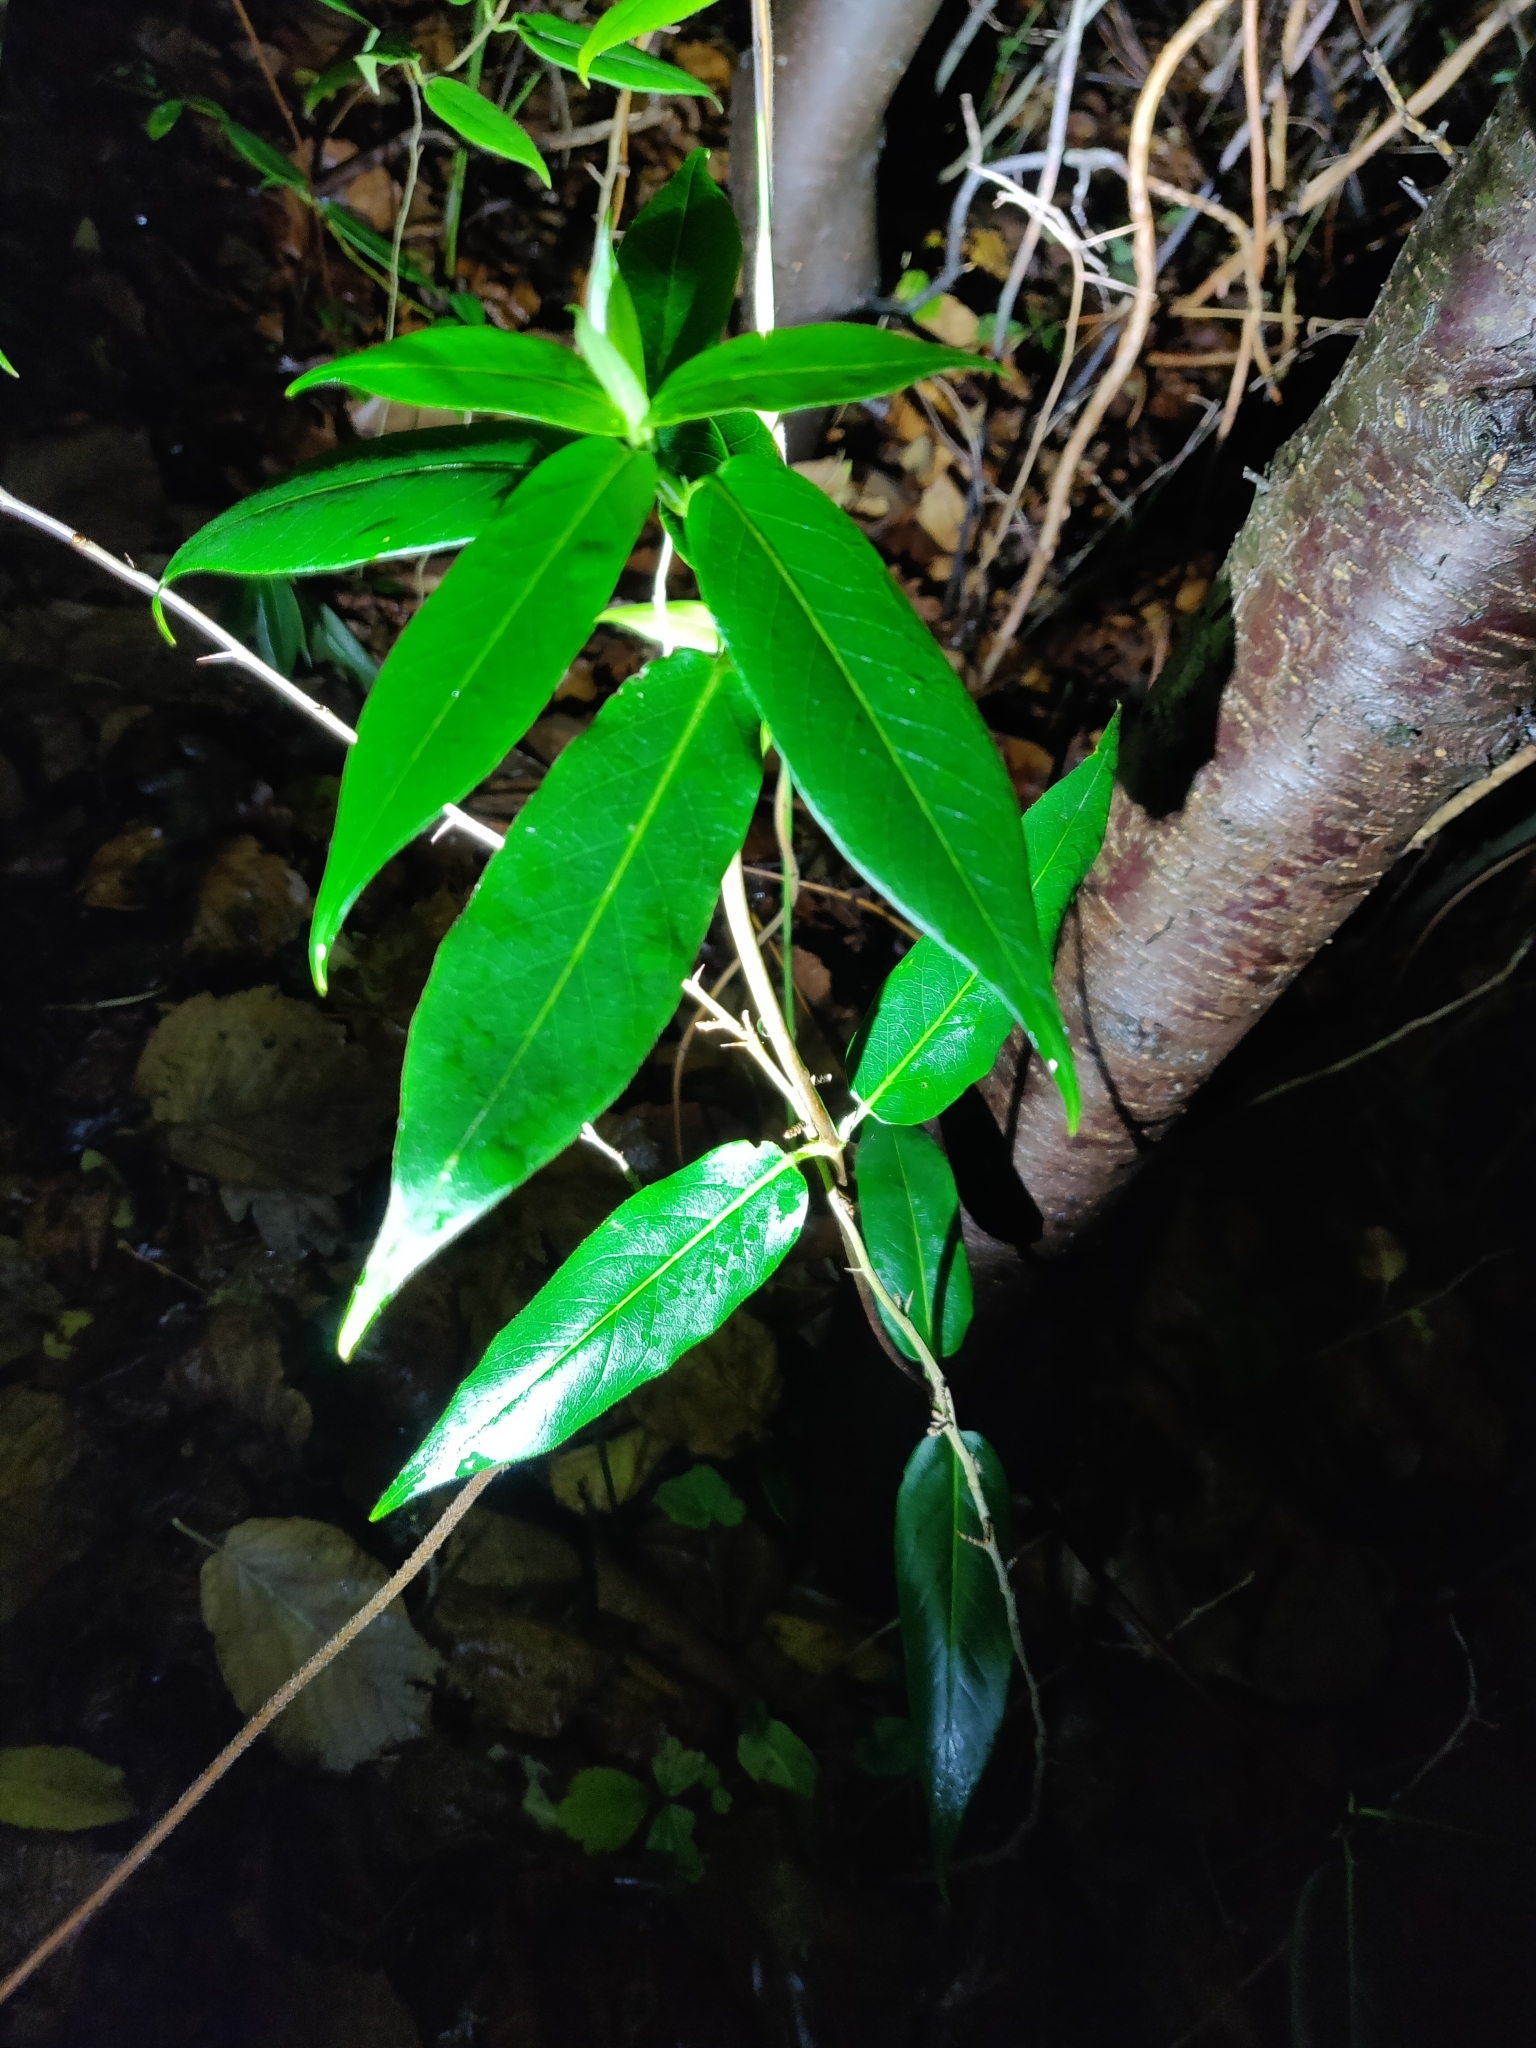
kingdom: Plantae
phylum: Tracheophyta
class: Magnoliopsida
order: Dipsacales
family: Caprifoliaceae
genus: Lonicera
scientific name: Lonicera acuminata
